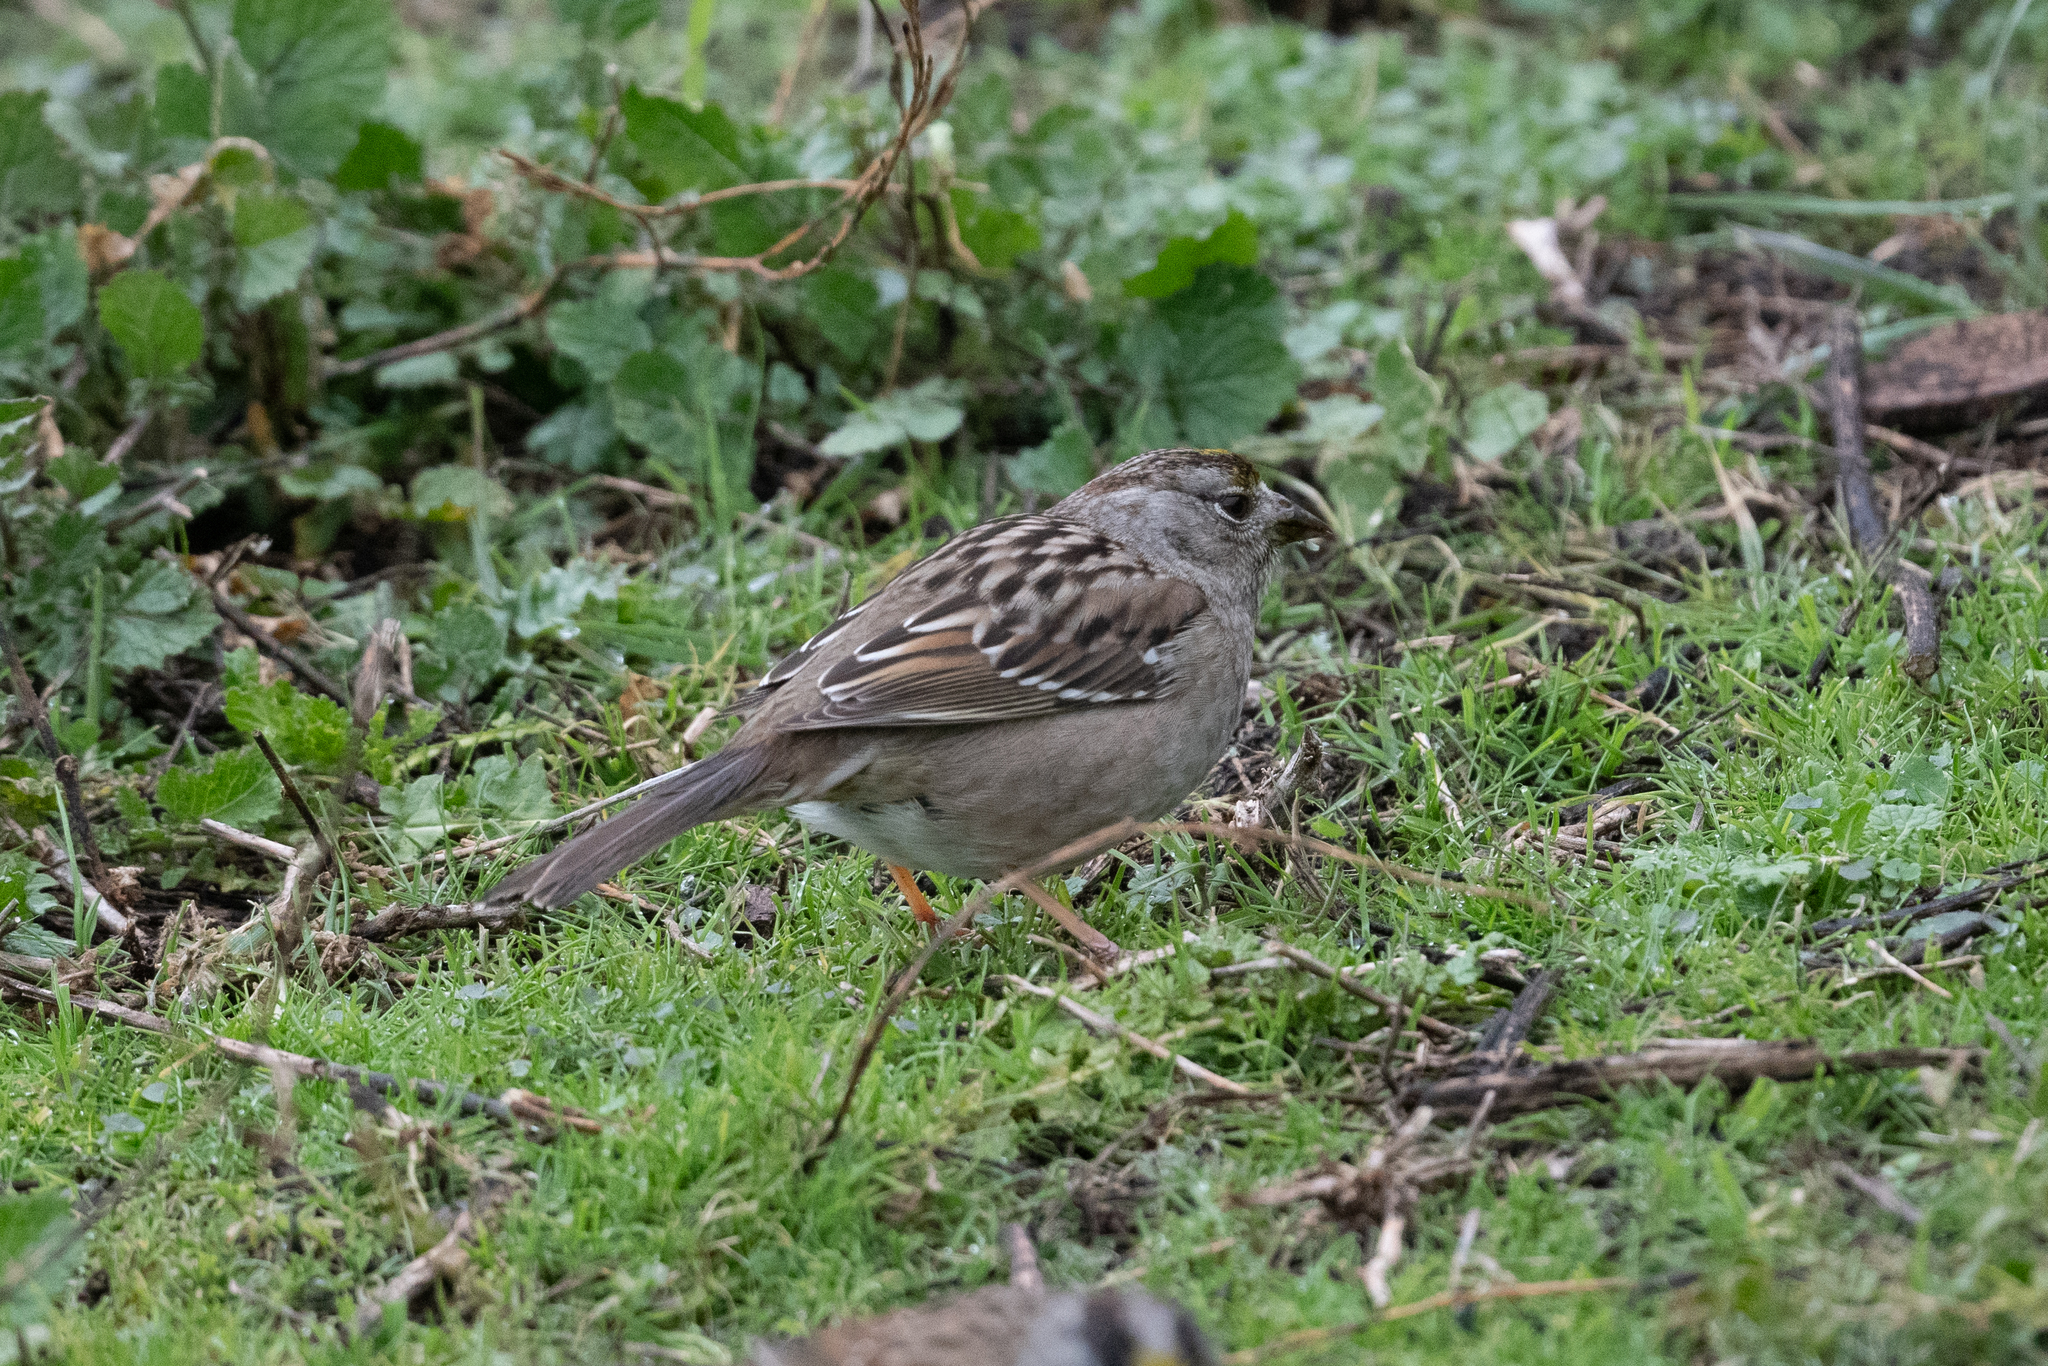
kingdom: Animalia
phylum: Chordata
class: Aves
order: Passeriformes
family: Passerellidae
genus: Zonotrichia
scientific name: Zonotrichia atricapilla
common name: Golden-crowned sparrow
